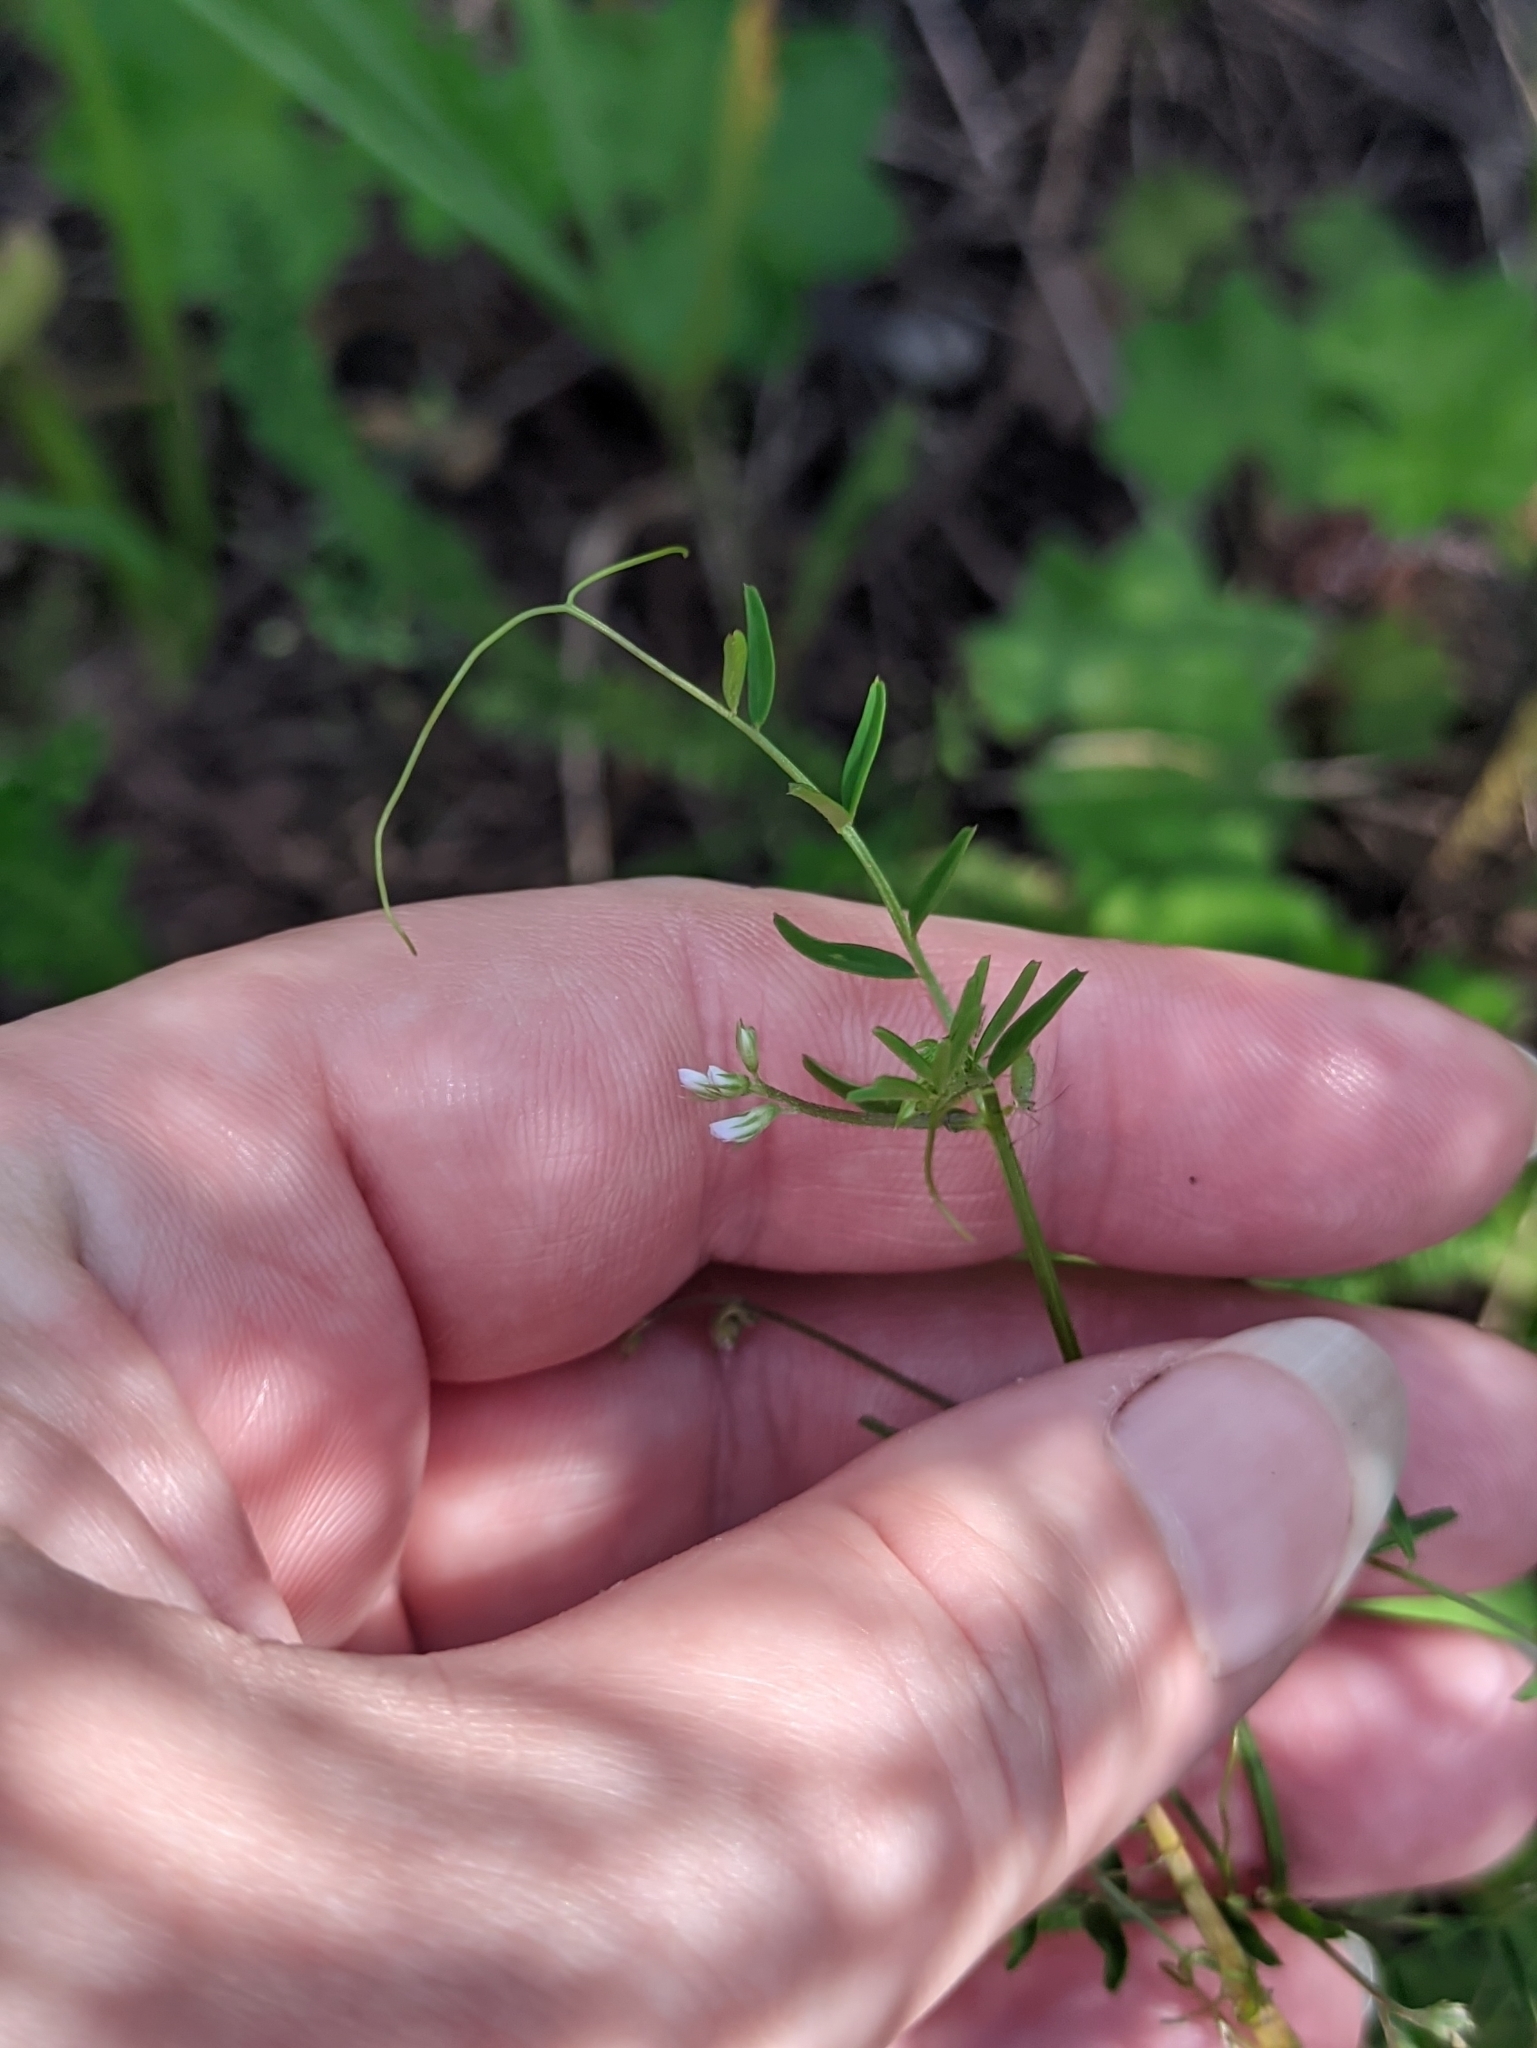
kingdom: Plantae
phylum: Tracheophyta
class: Magnoliopsida
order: Fabales
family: Fabaceae
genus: Vicia
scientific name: Vicia hirsuta
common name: Tiny vetch
